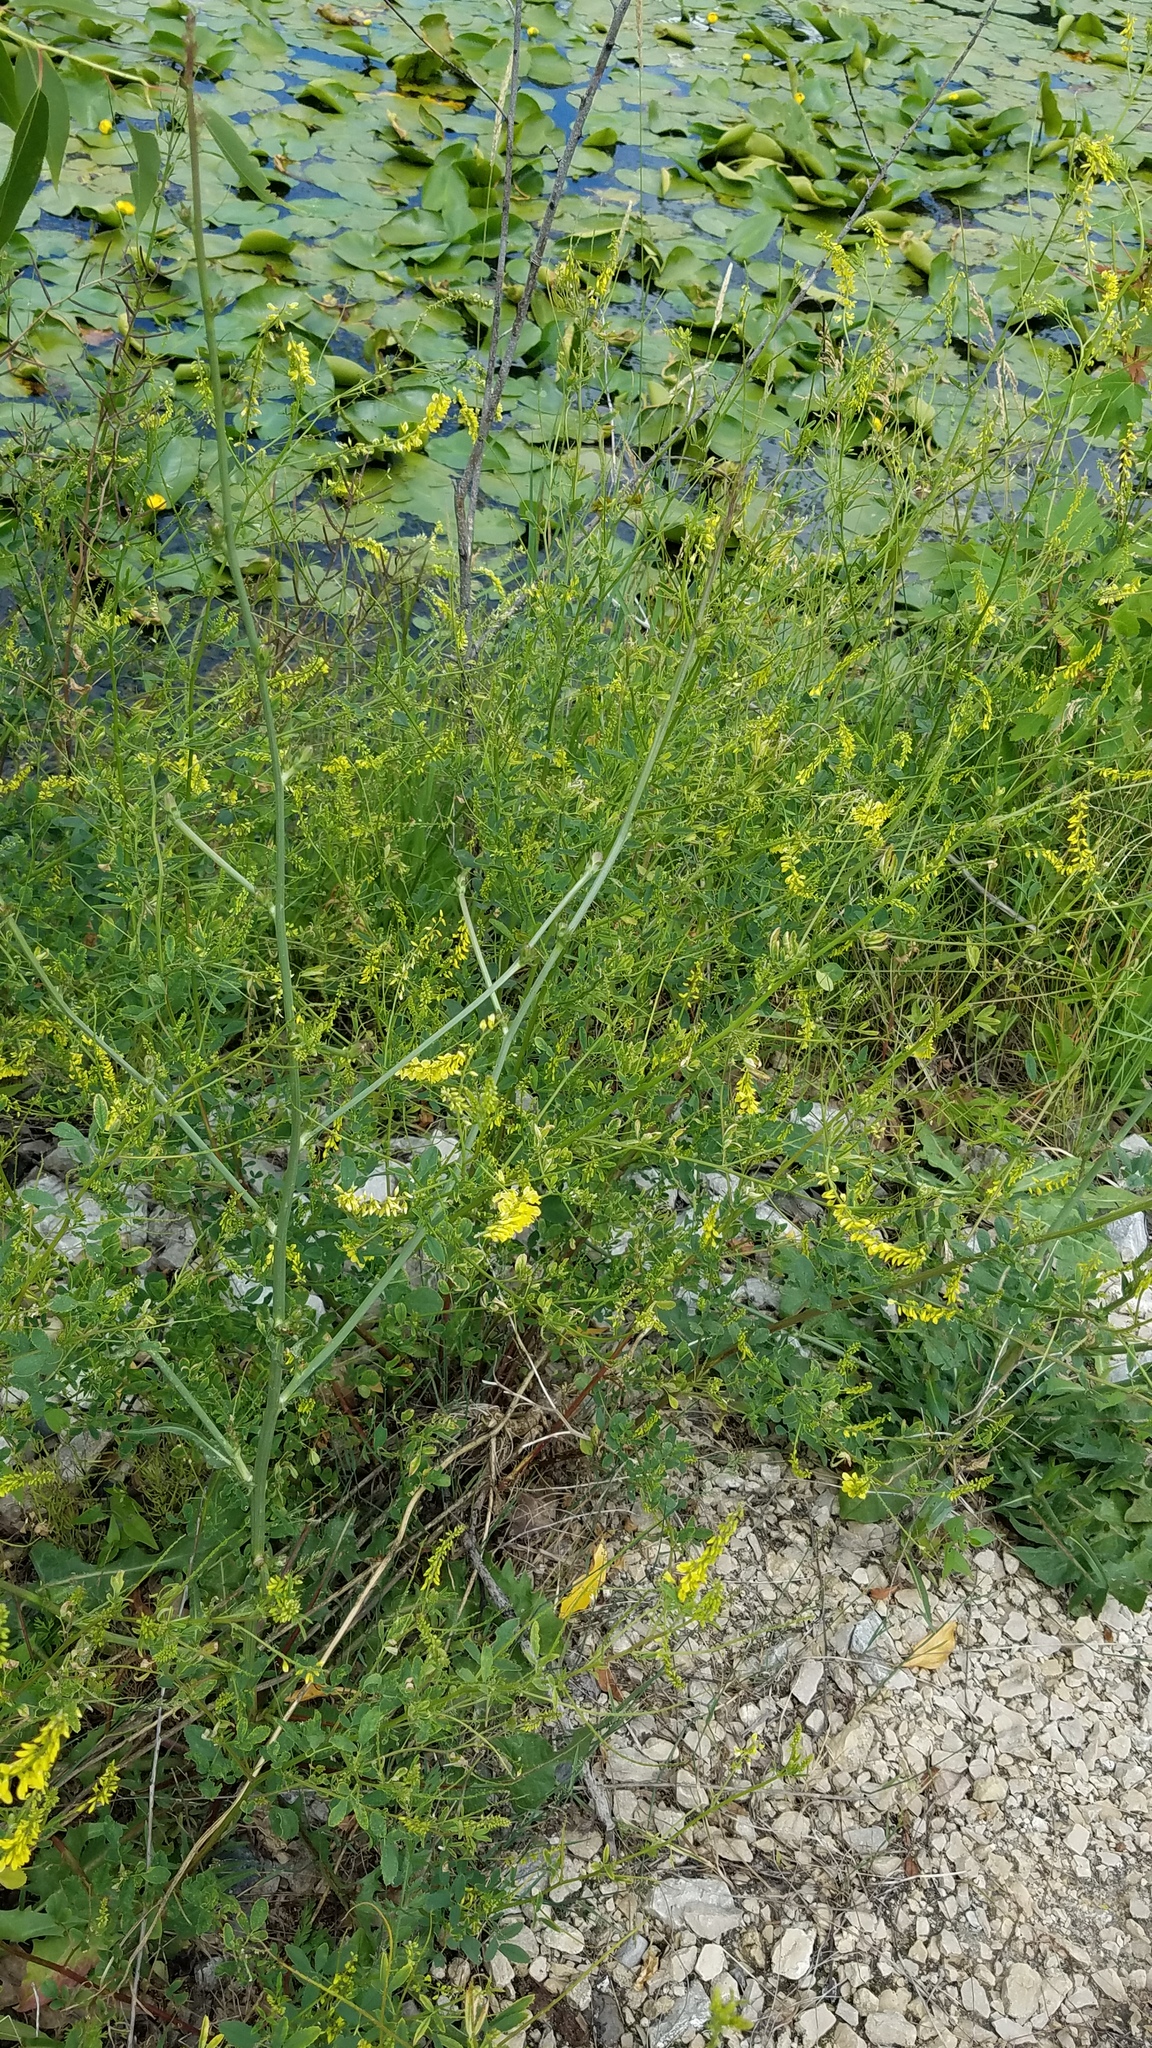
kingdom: Plantae
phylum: Tracheophyta
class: Magnoliopsida
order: Fabales
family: Fabaceae
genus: Melilotus
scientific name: Melilotus officinalis
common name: Sweetclover
